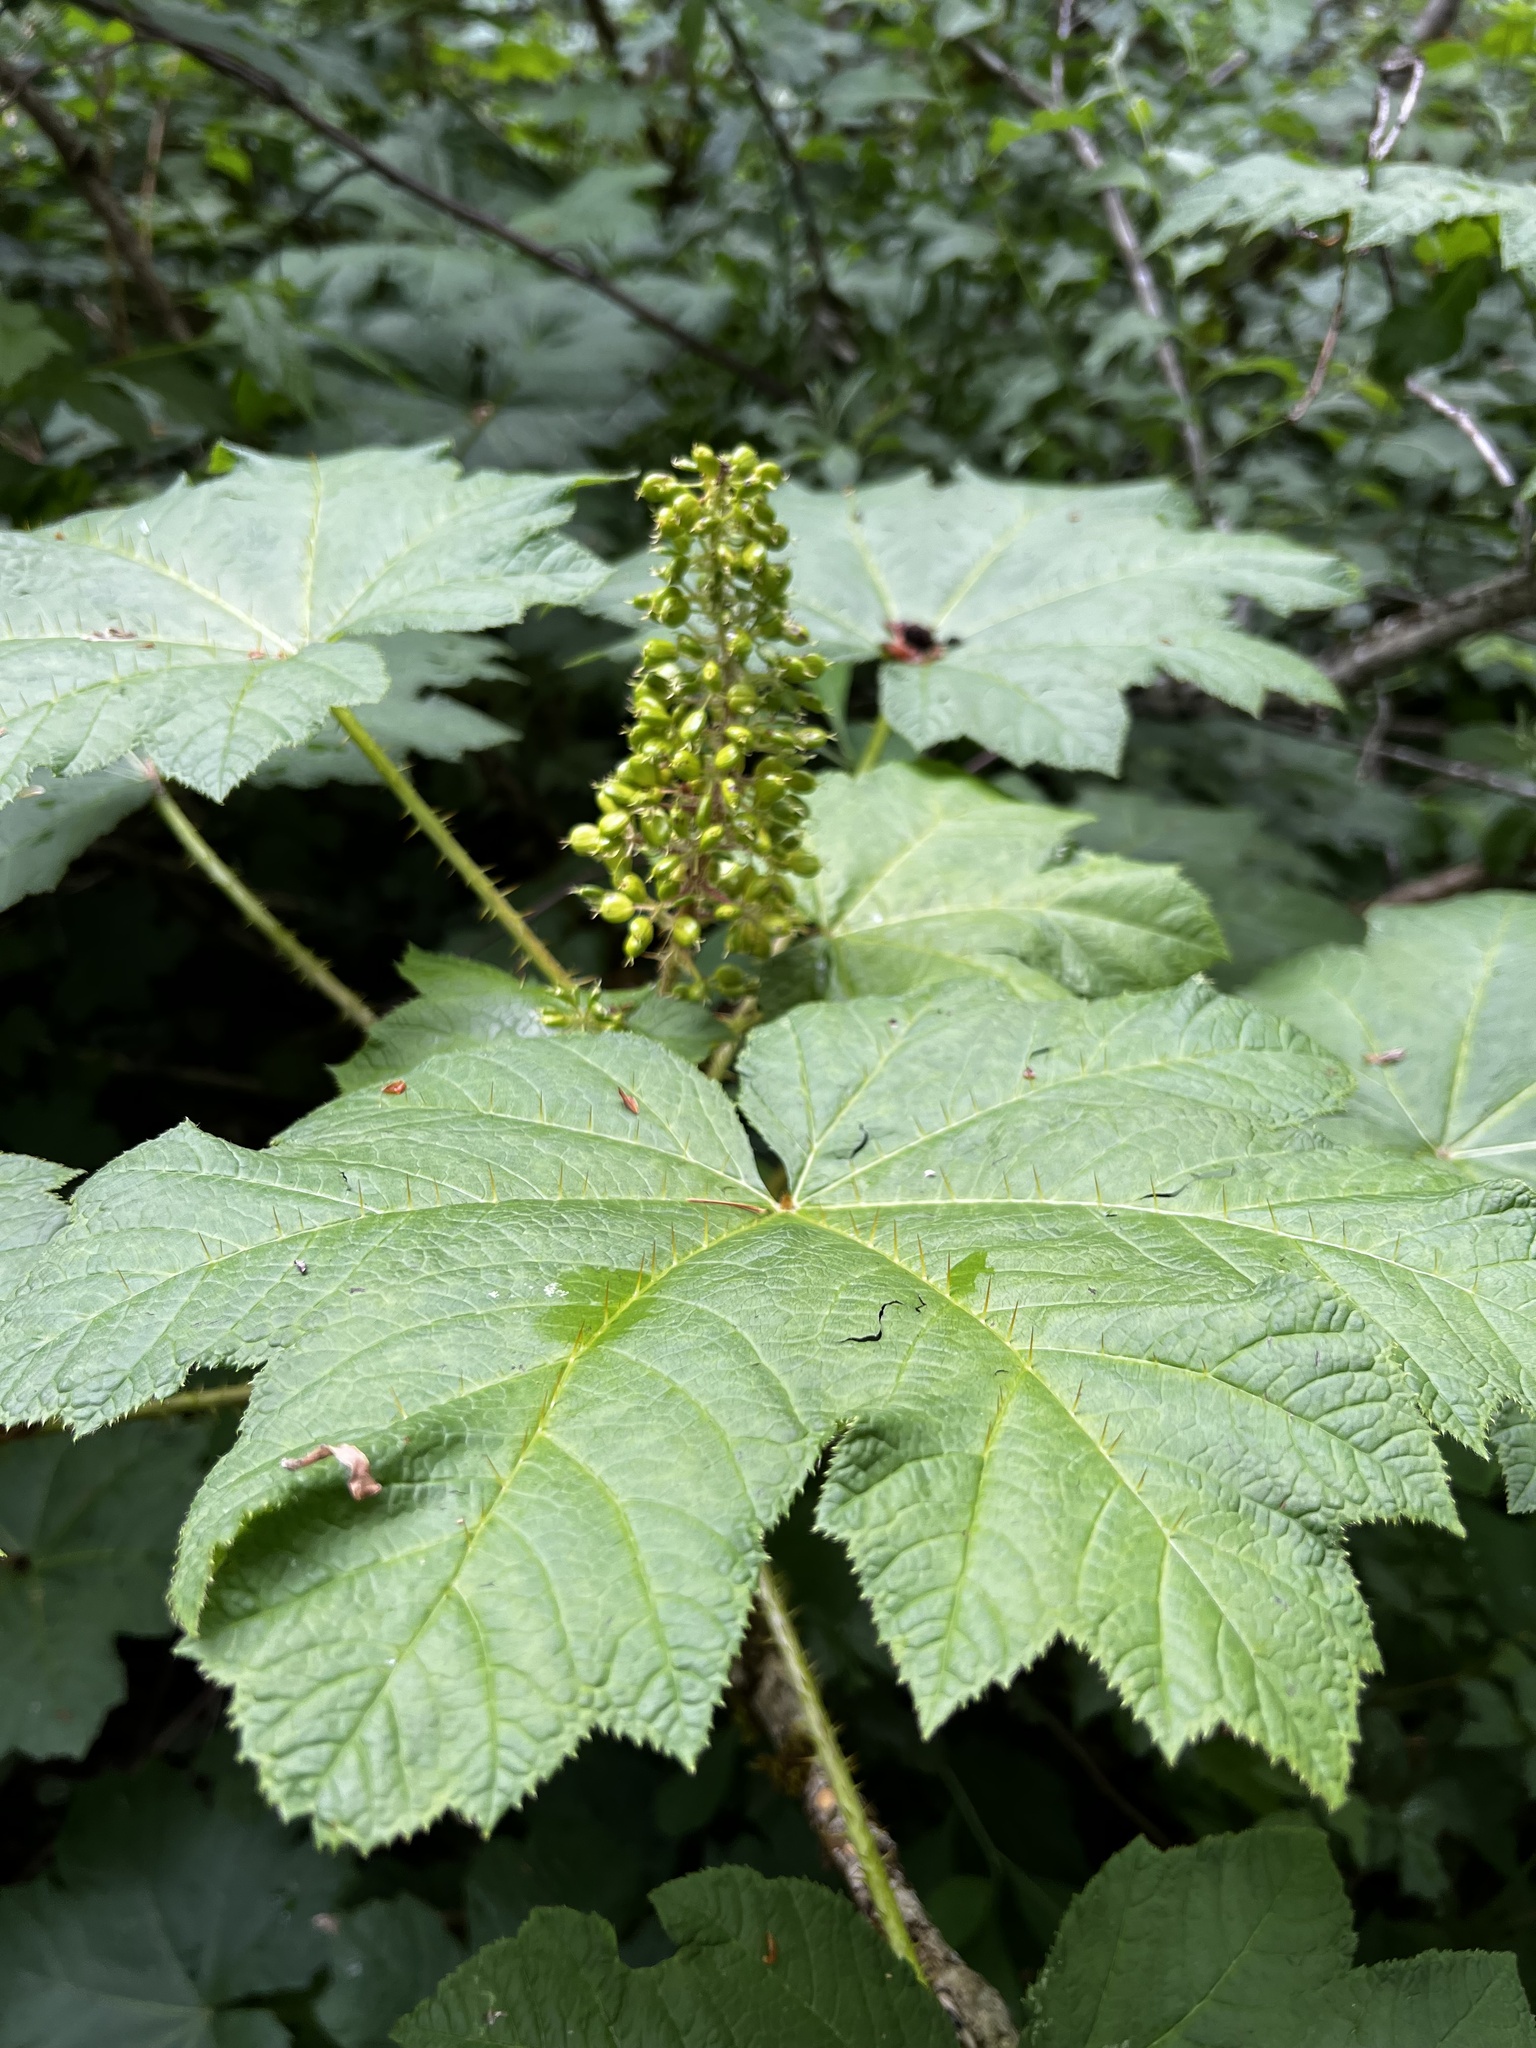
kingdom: Plantae
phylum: Tracheophyta
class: Magnoliopsida
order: Apiales
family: Araliaceae
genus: Oplopanax
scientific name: Oplopanax horridus
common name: Devil's walking-stick
